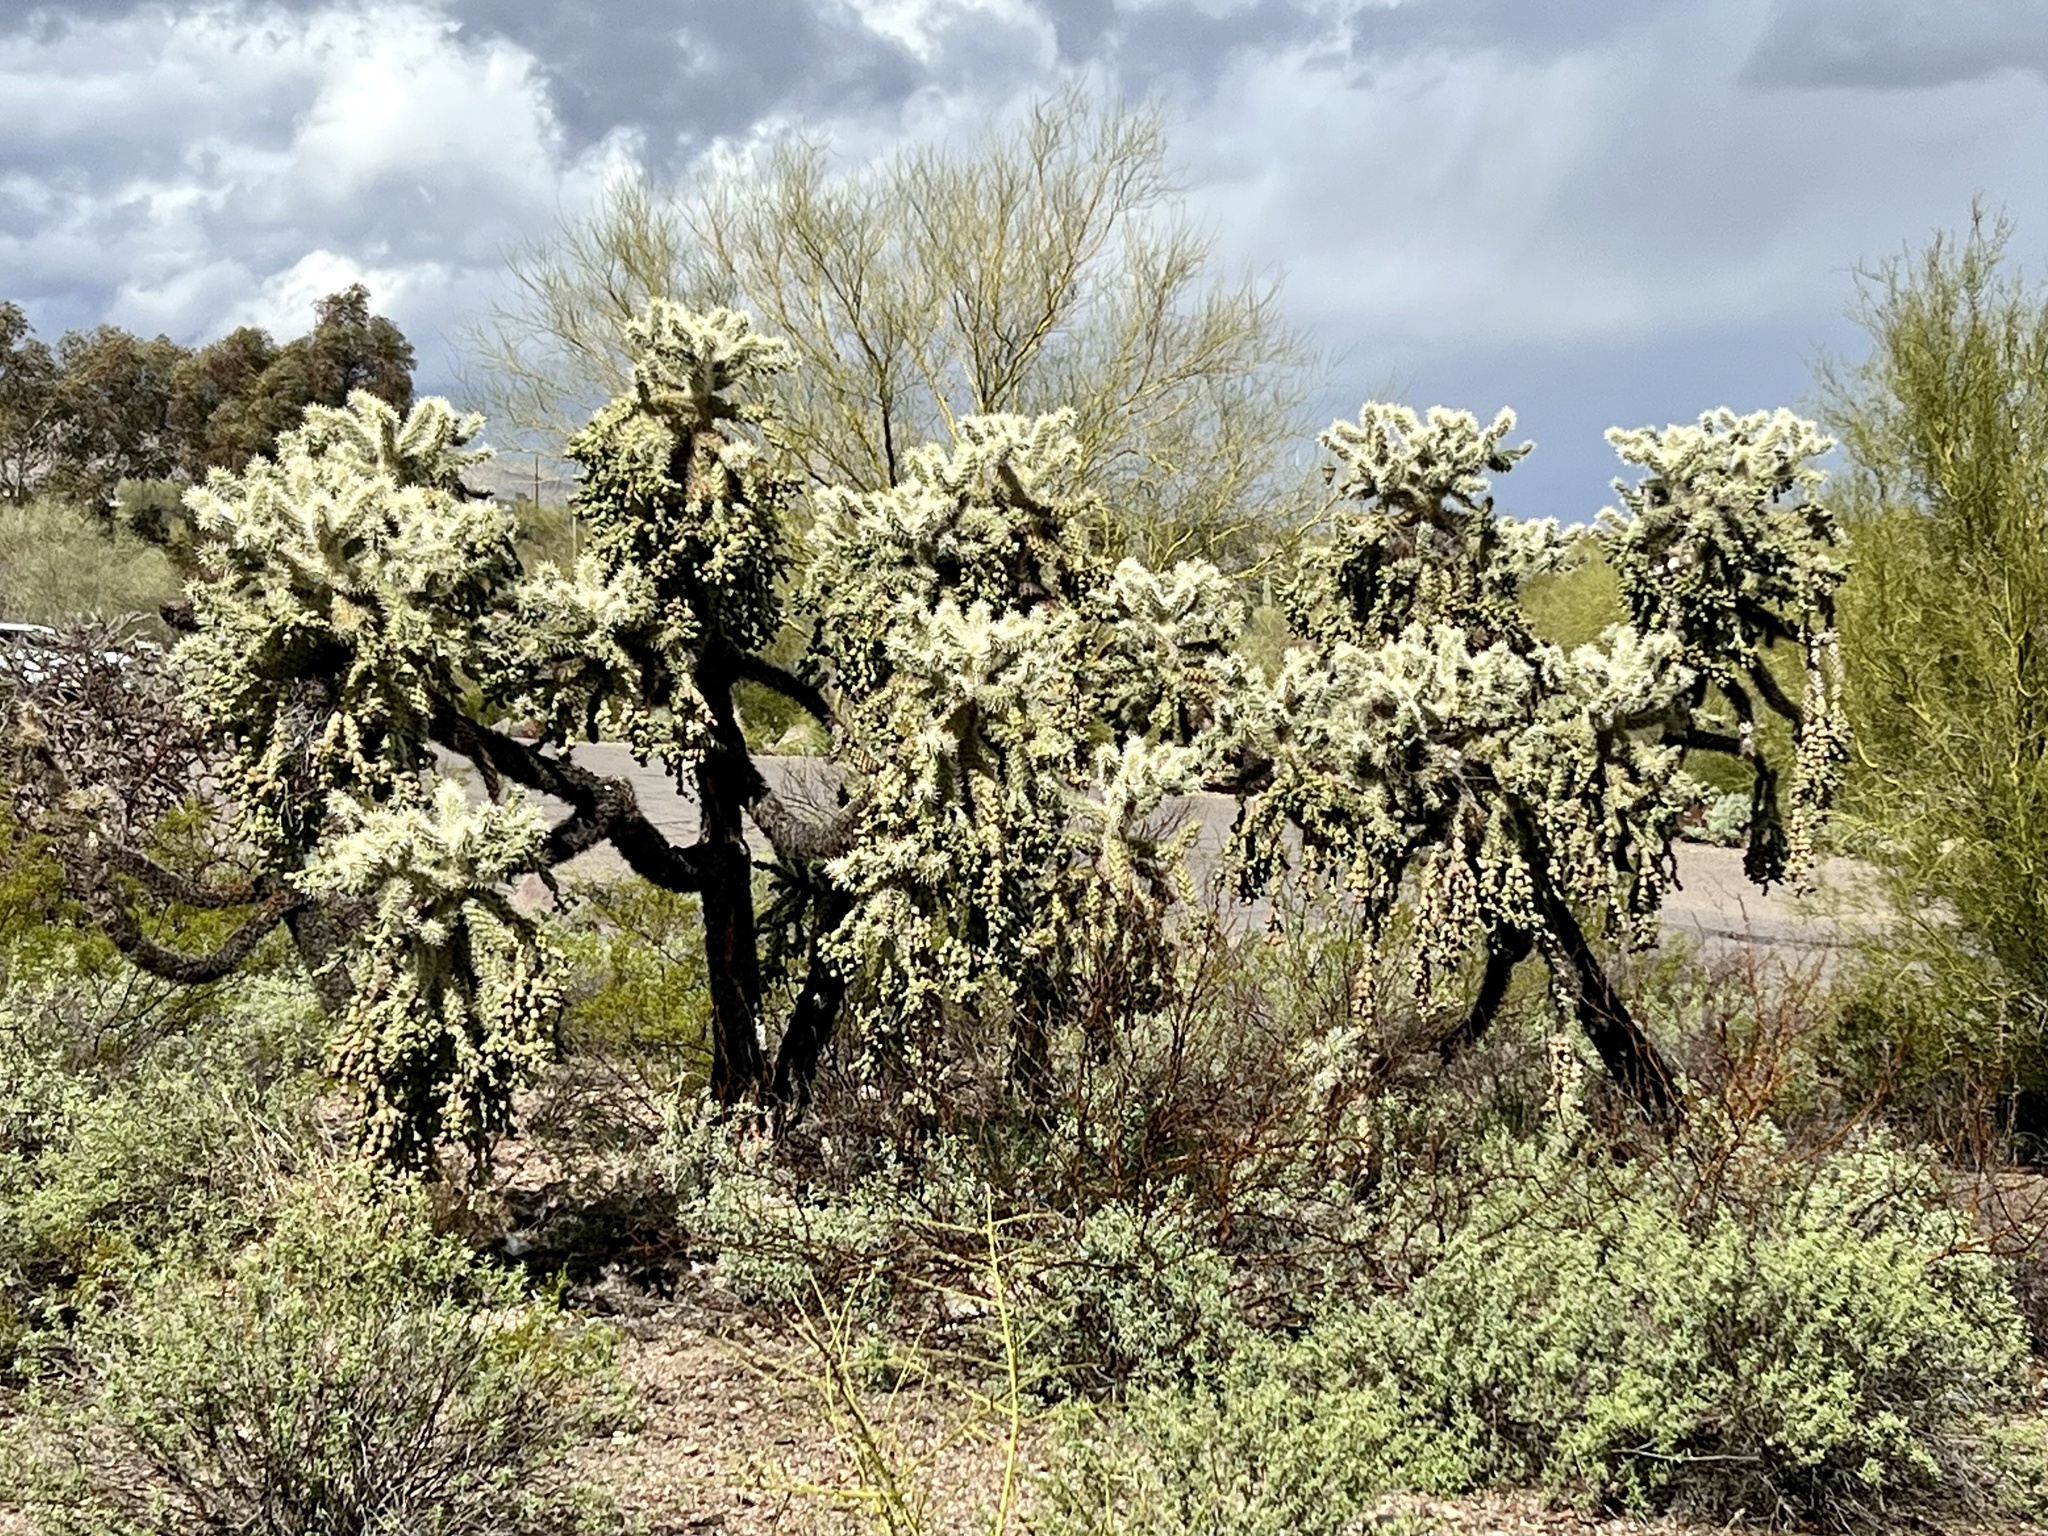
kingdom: Plantae
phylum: Tracheophyta
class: Magnoliopsida
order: Caryophyllales
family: Cactaceae
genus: Cylindropuntia
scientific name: Cylindropuntia fulgida
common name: Jumping cholla
